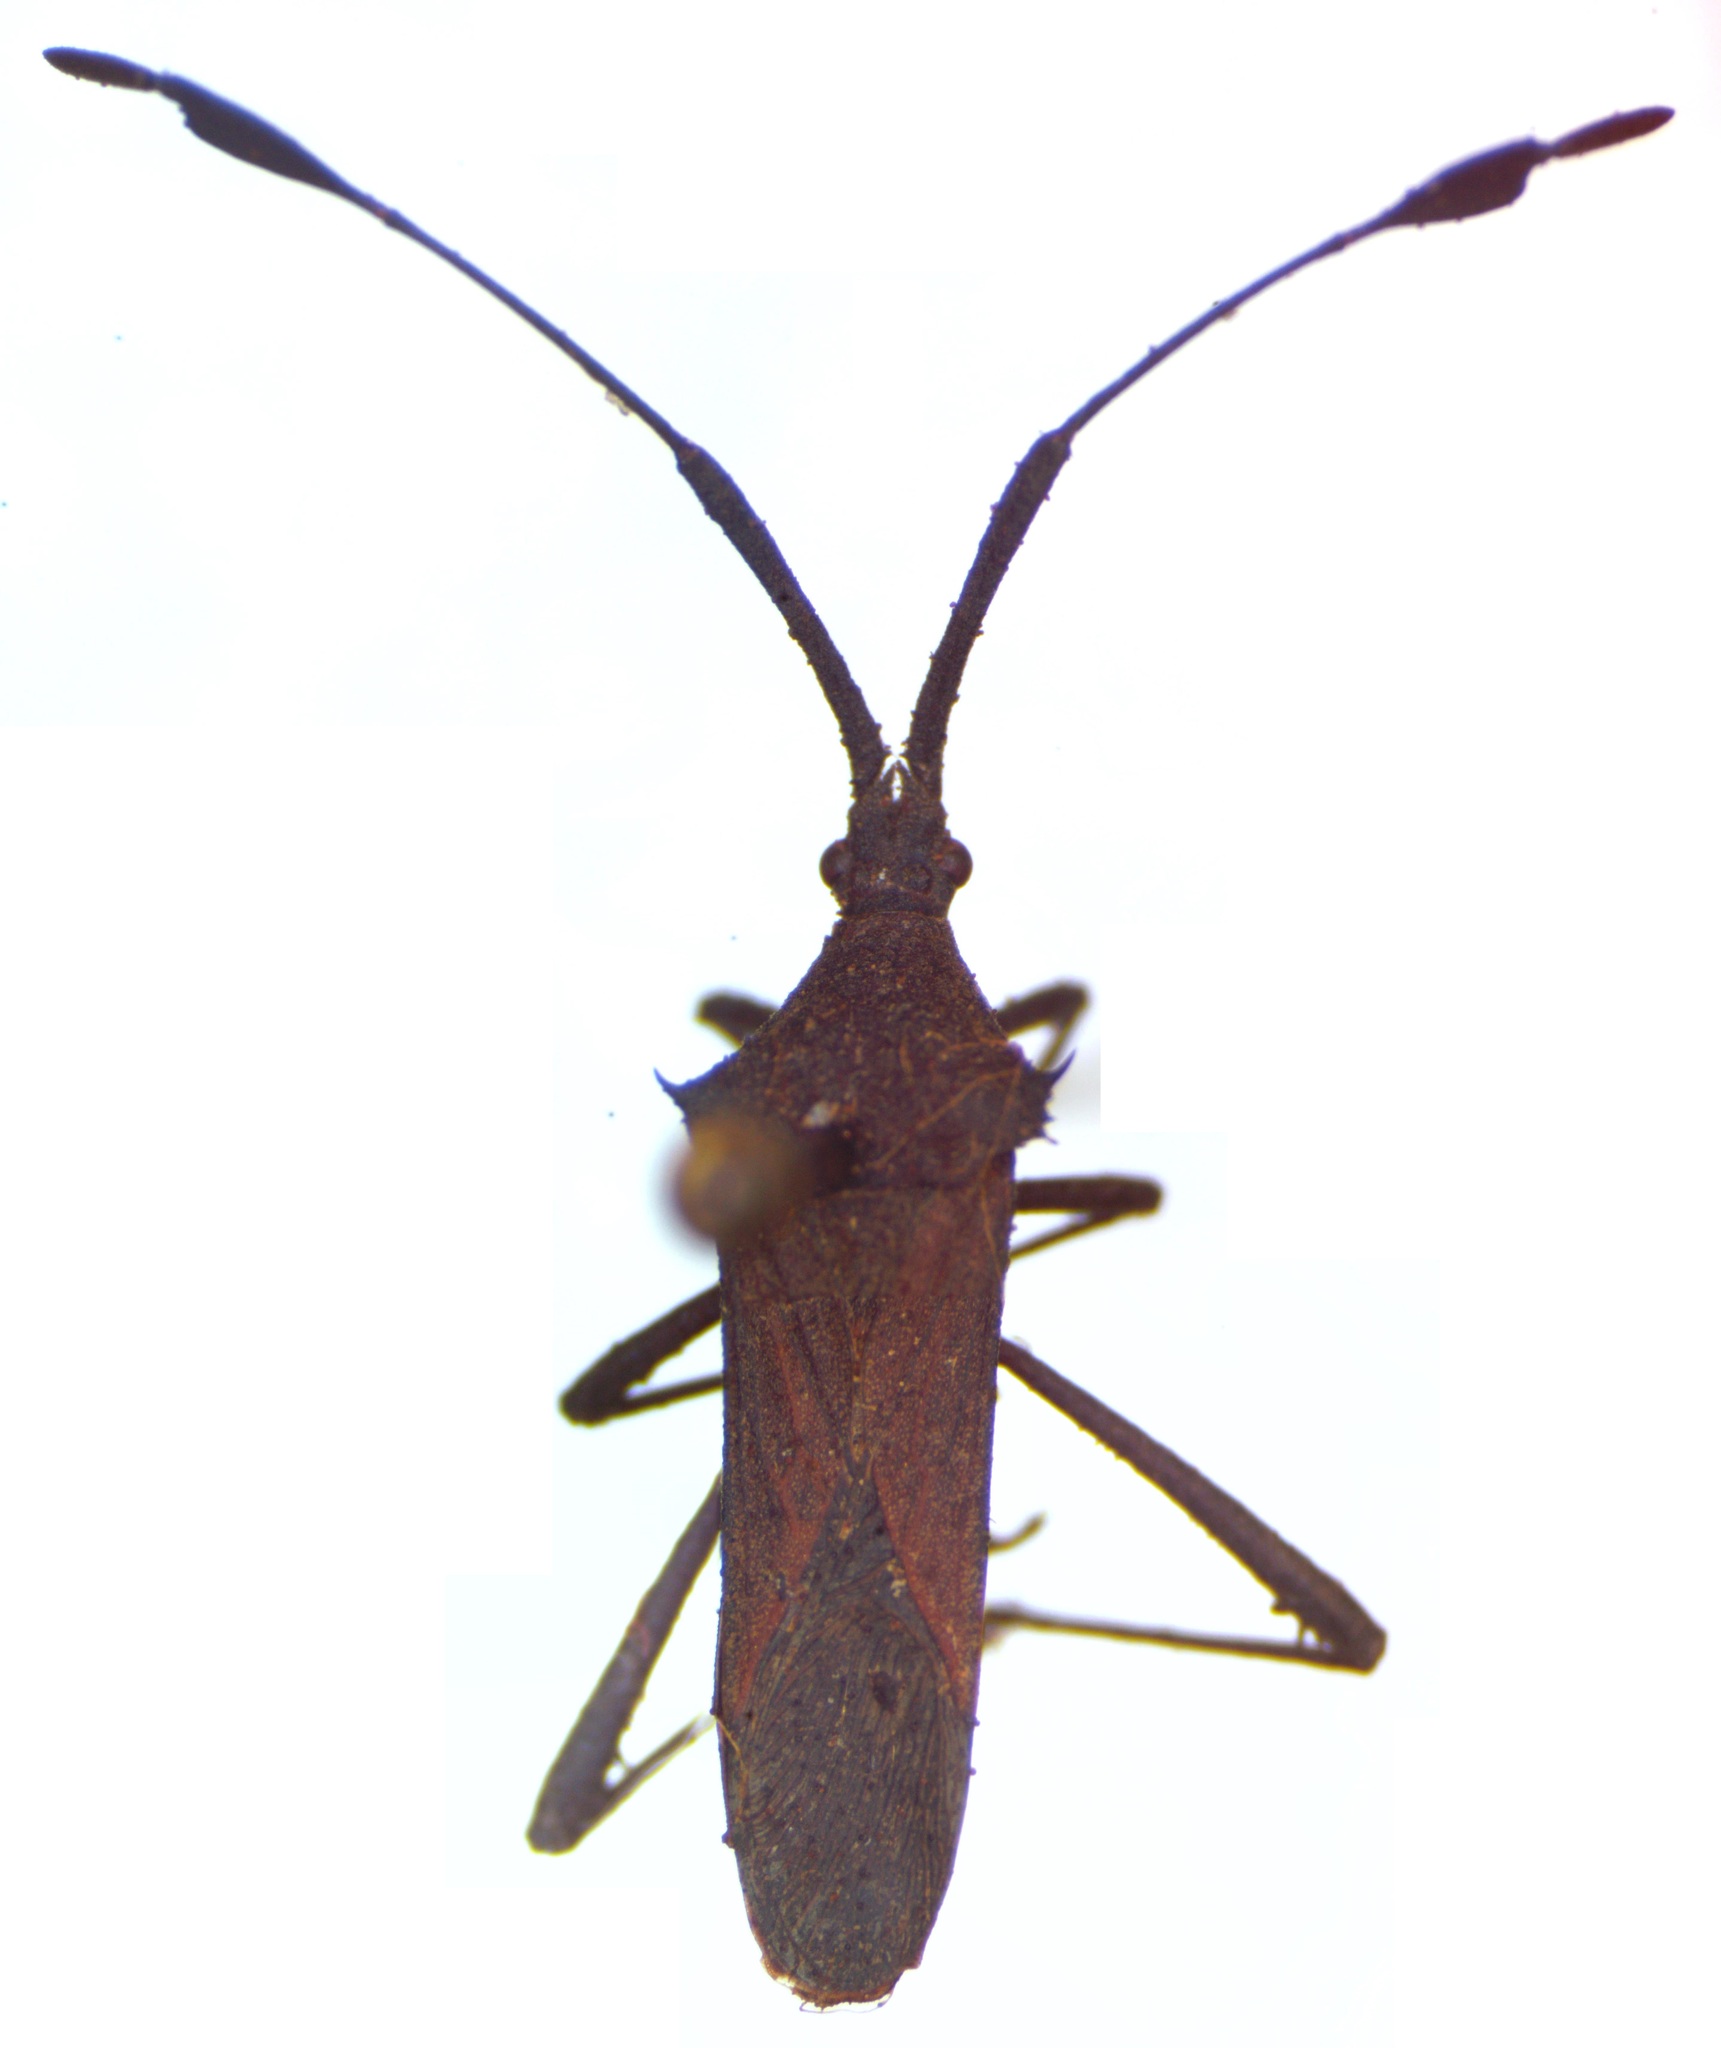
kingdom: Animalia
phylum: Arthropoda
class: Insecta
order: Hemiptera
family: Coreidae
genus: Chariesterus
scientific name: Chariesterus moestus
